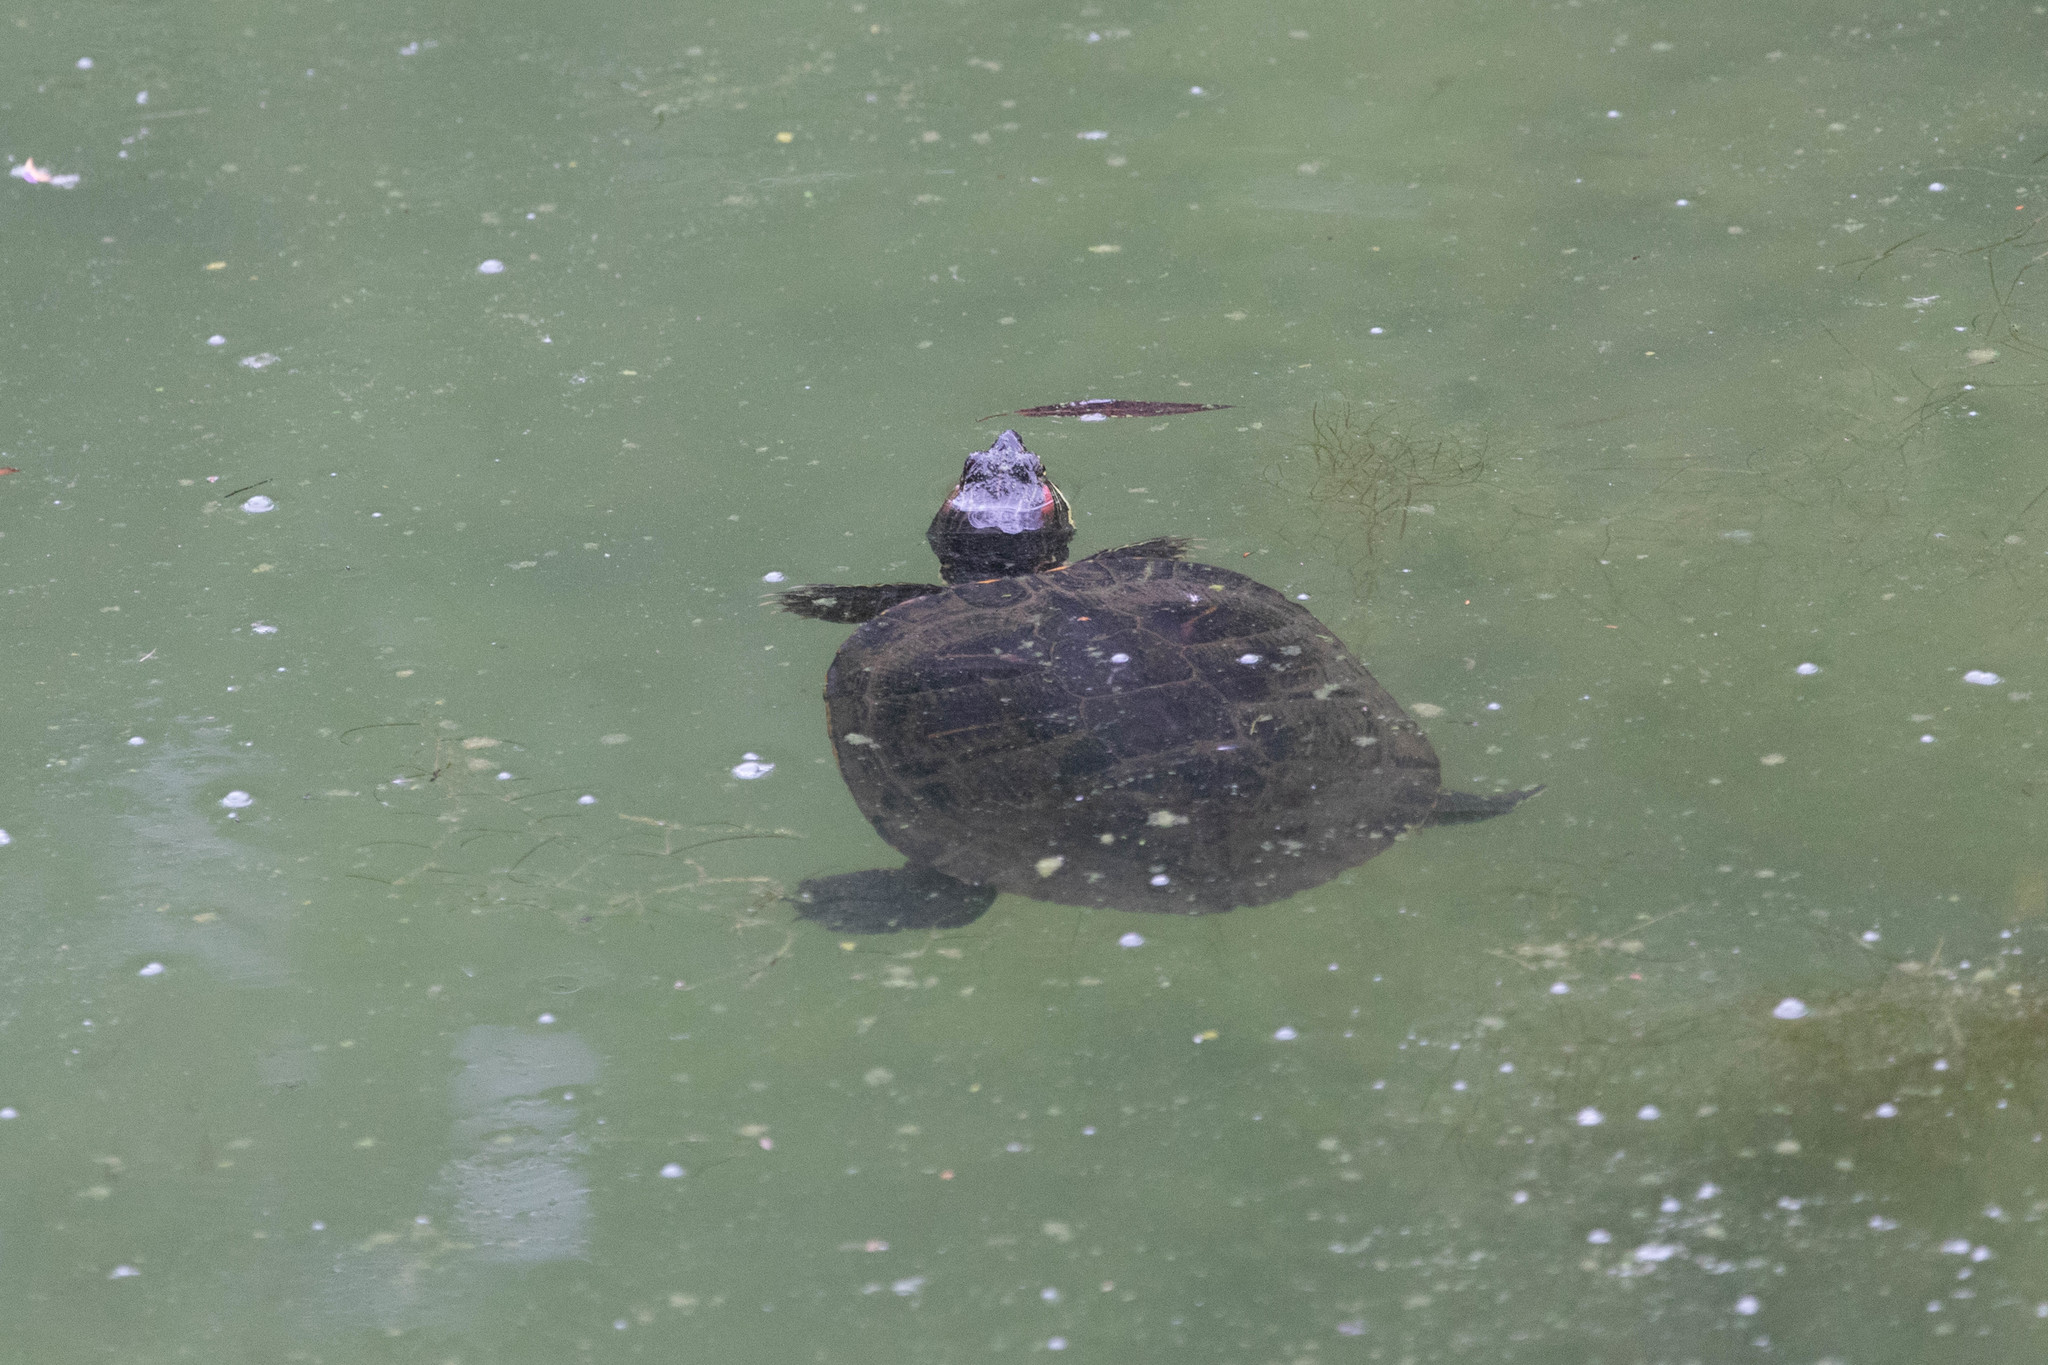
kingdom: Animalia
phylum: Chordata
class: Testudines
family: Emydidae
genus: Trachemys
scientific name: Trachemys scripta
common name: Slider
